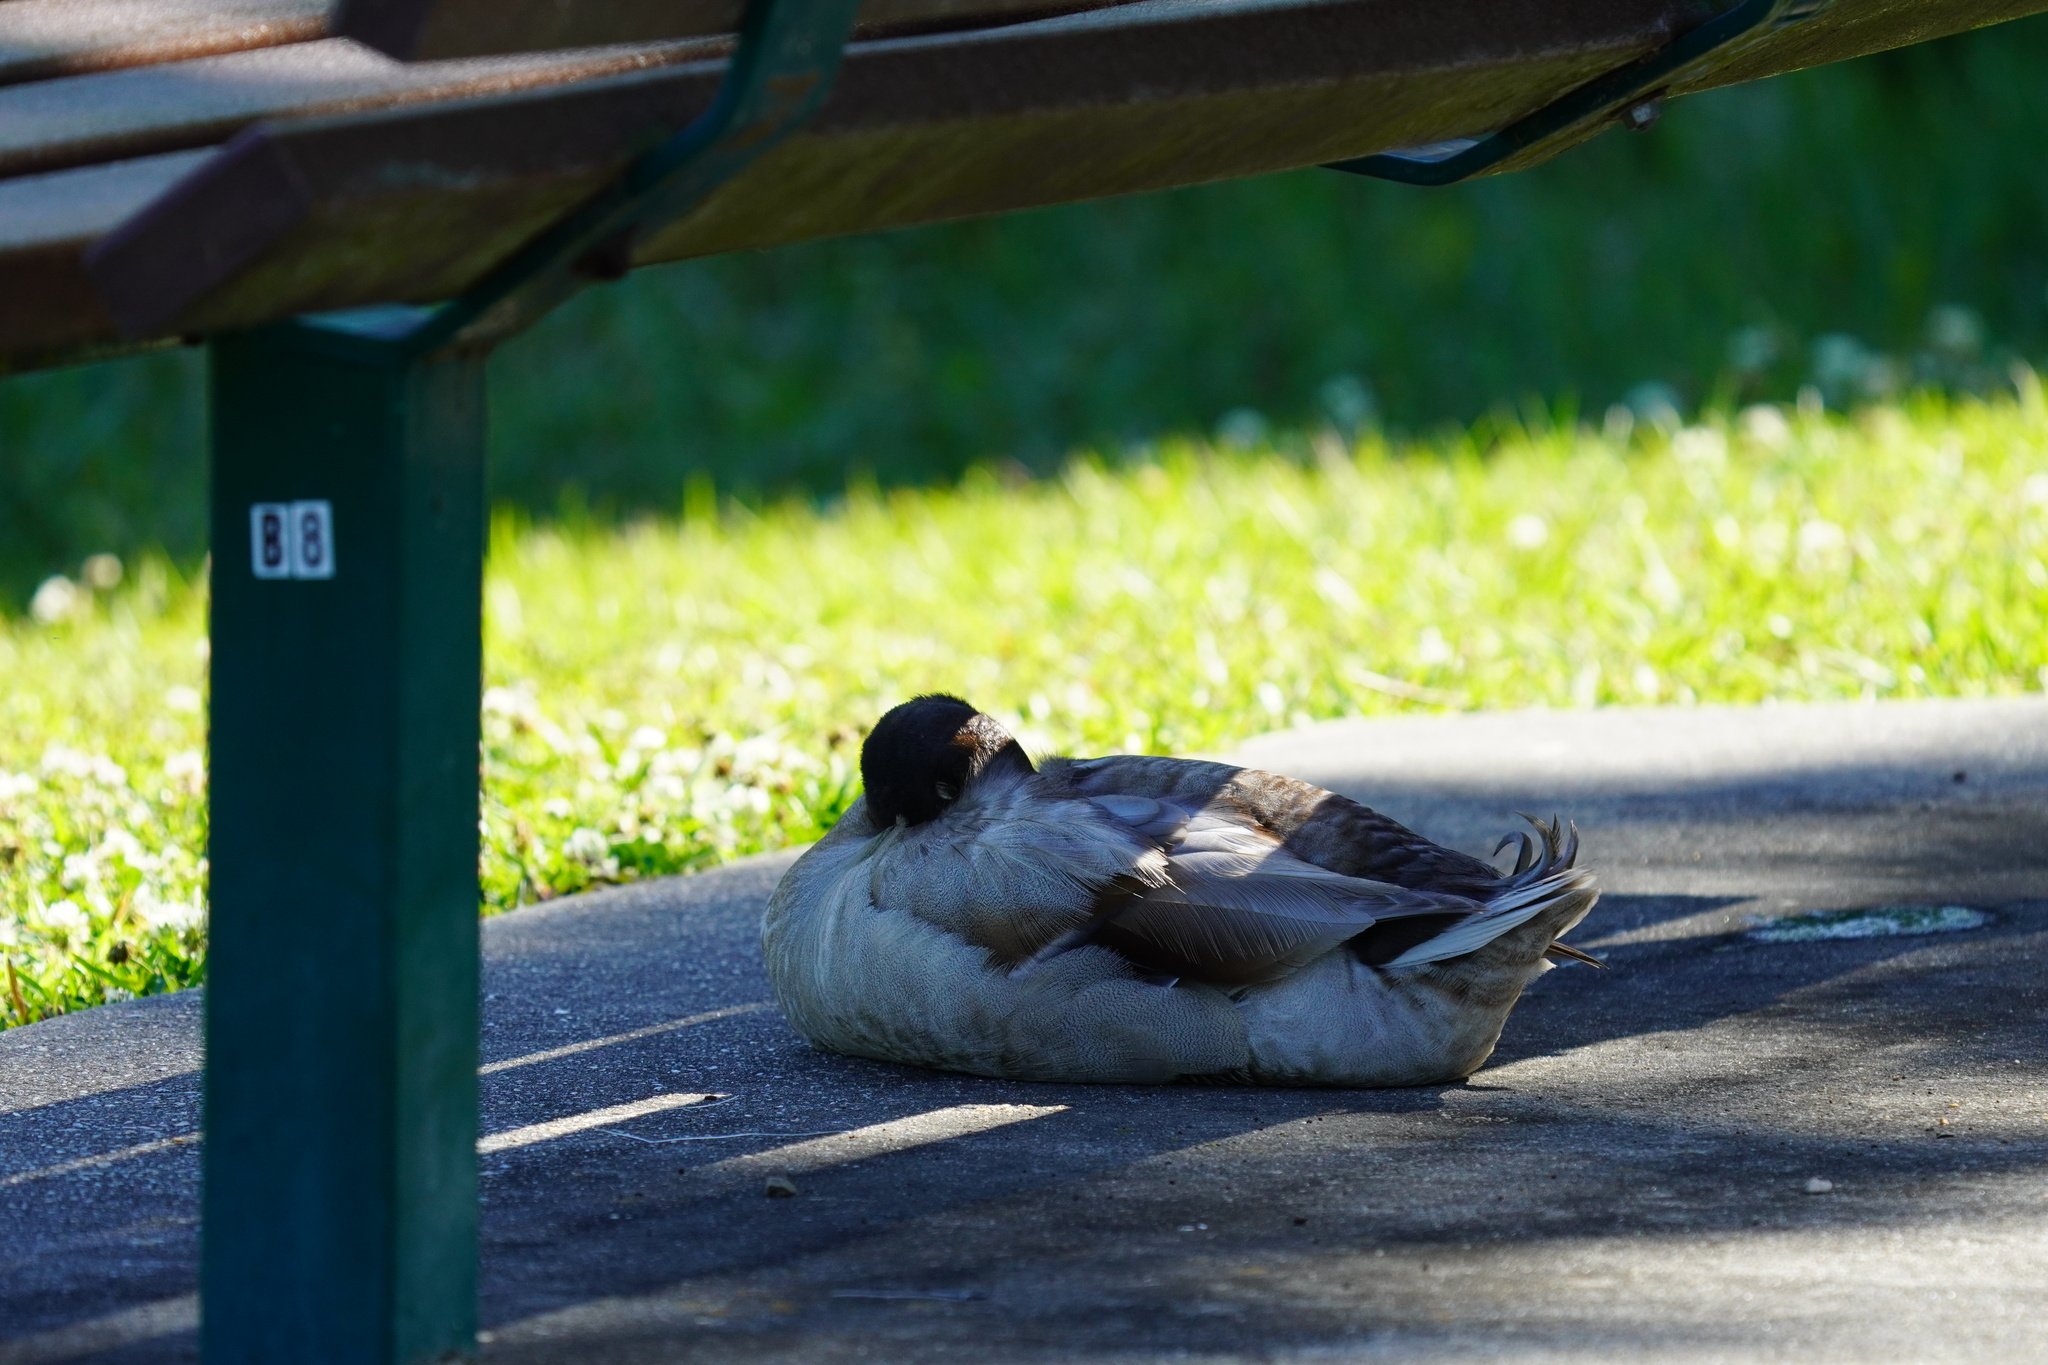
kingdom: Animalia
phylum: Chordata
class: Aves
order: Anseriformes
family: Anatidae
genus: Anas
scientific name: Anas platyrhynchos
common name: Mallard
